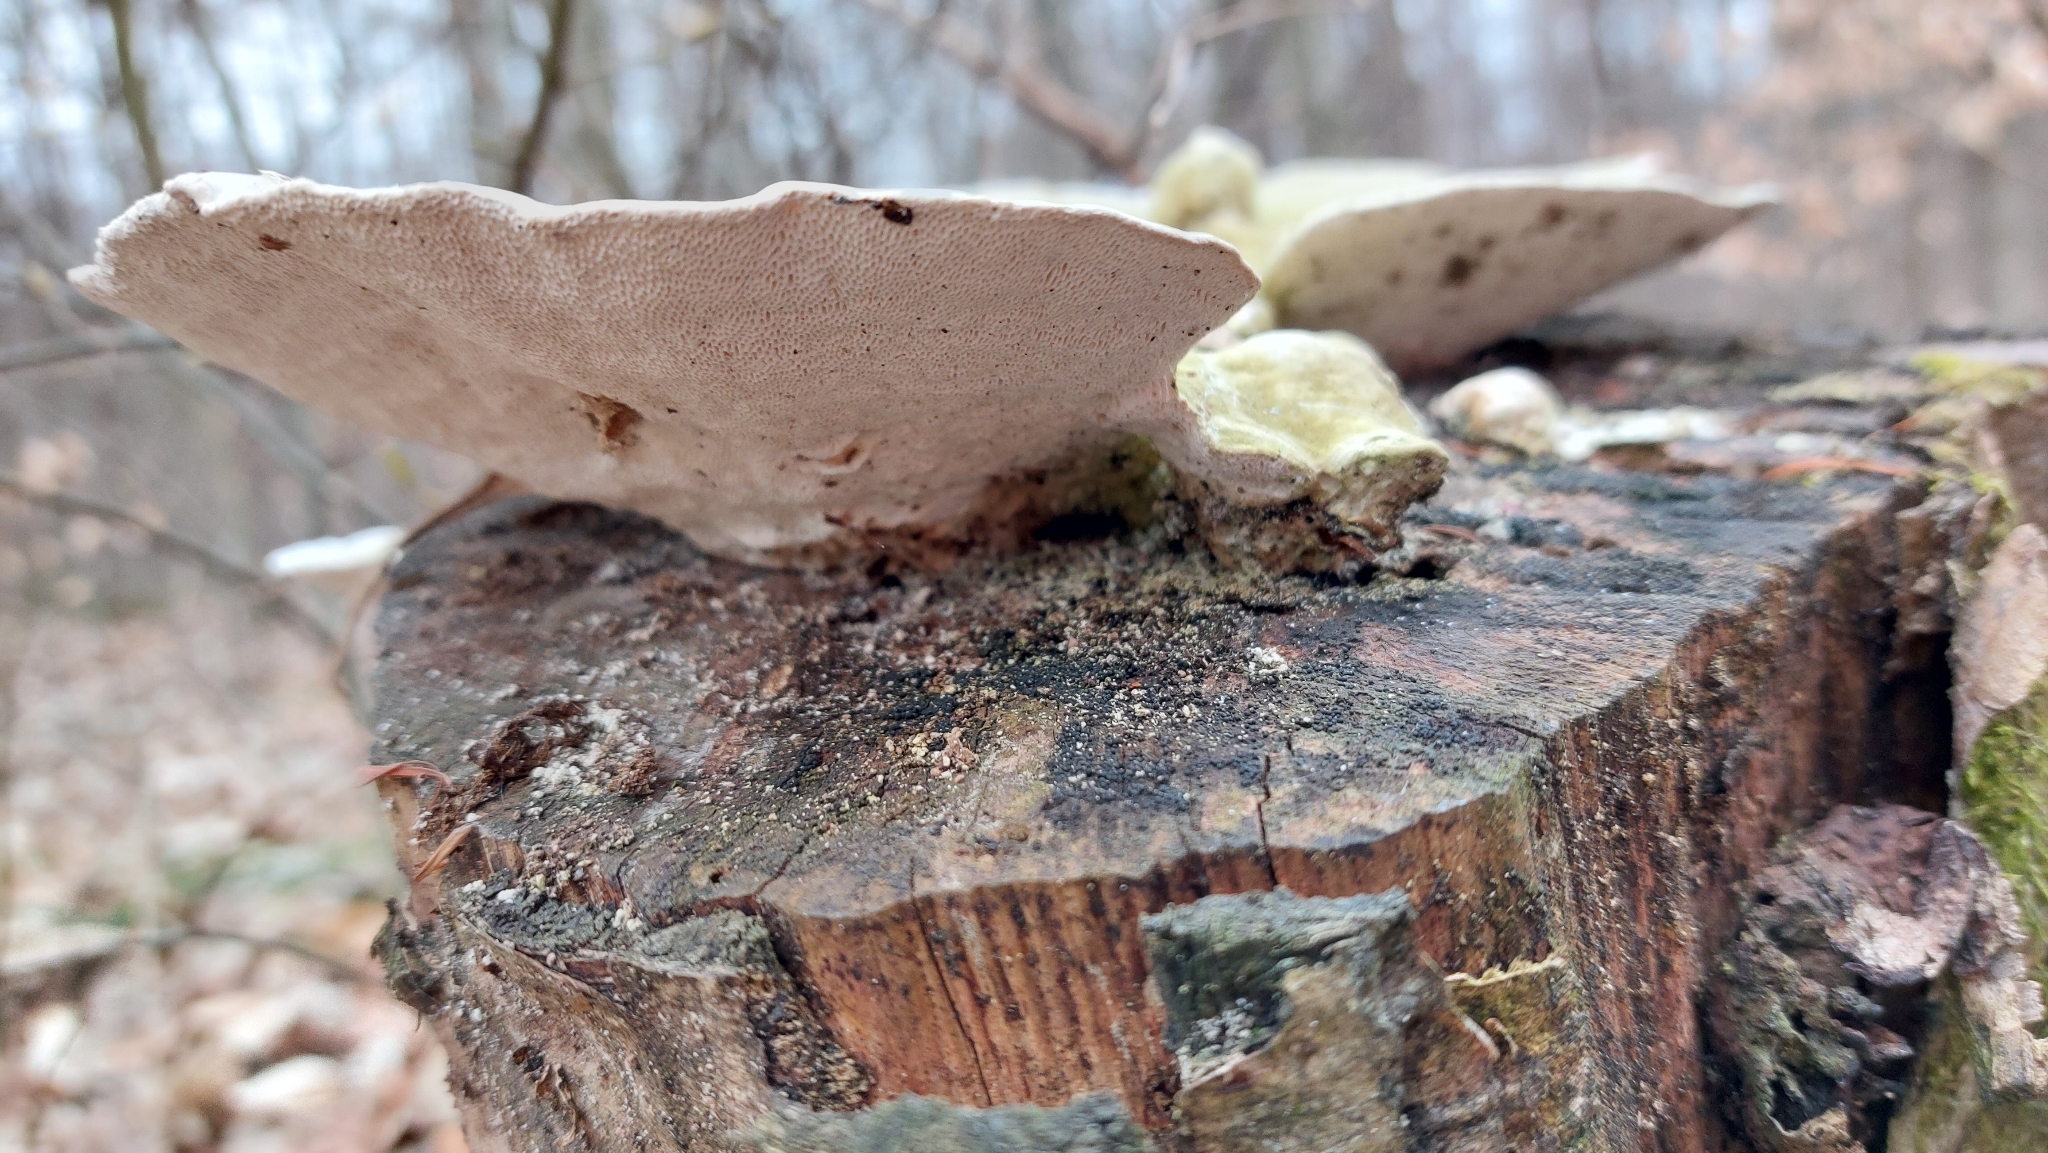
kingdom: Fungi
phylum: Basidiomycota
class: Agaricomycetes
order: Polyporales
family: Polyporaceae
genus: Trametes
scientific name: Trametes gibbosa
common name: Lumpy bracket
